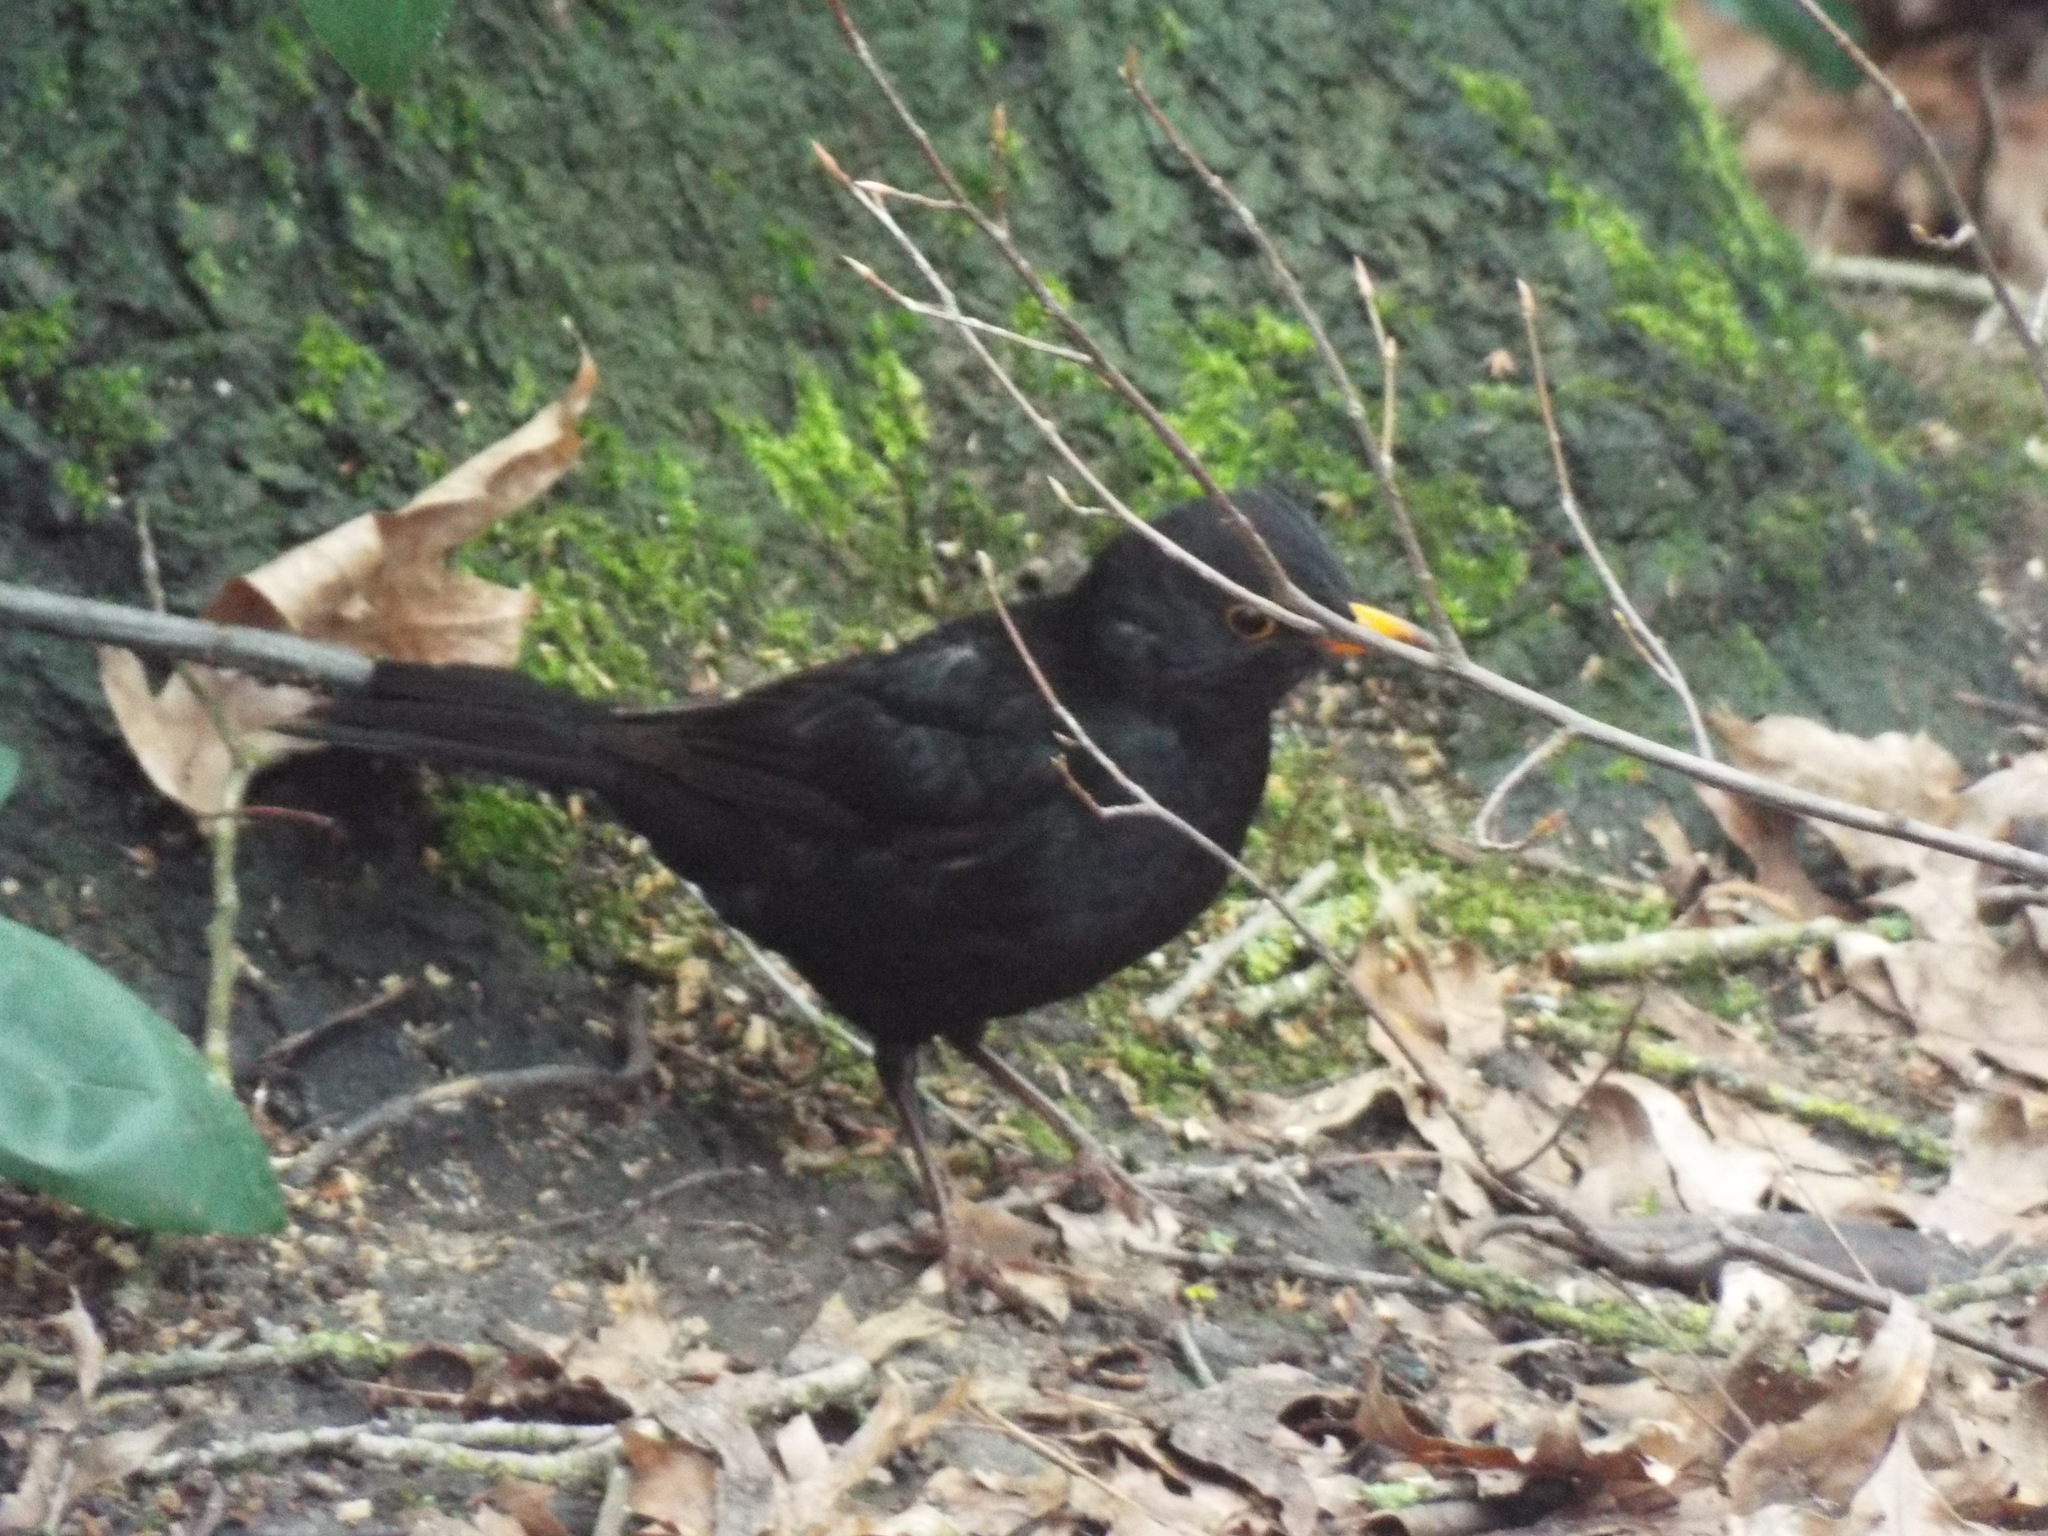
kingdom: Animalia
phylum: Chordata
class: Aves
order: Passeriformes
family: Turdidae
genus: Turdus
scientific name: Turdus merula
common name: Common blackbird
